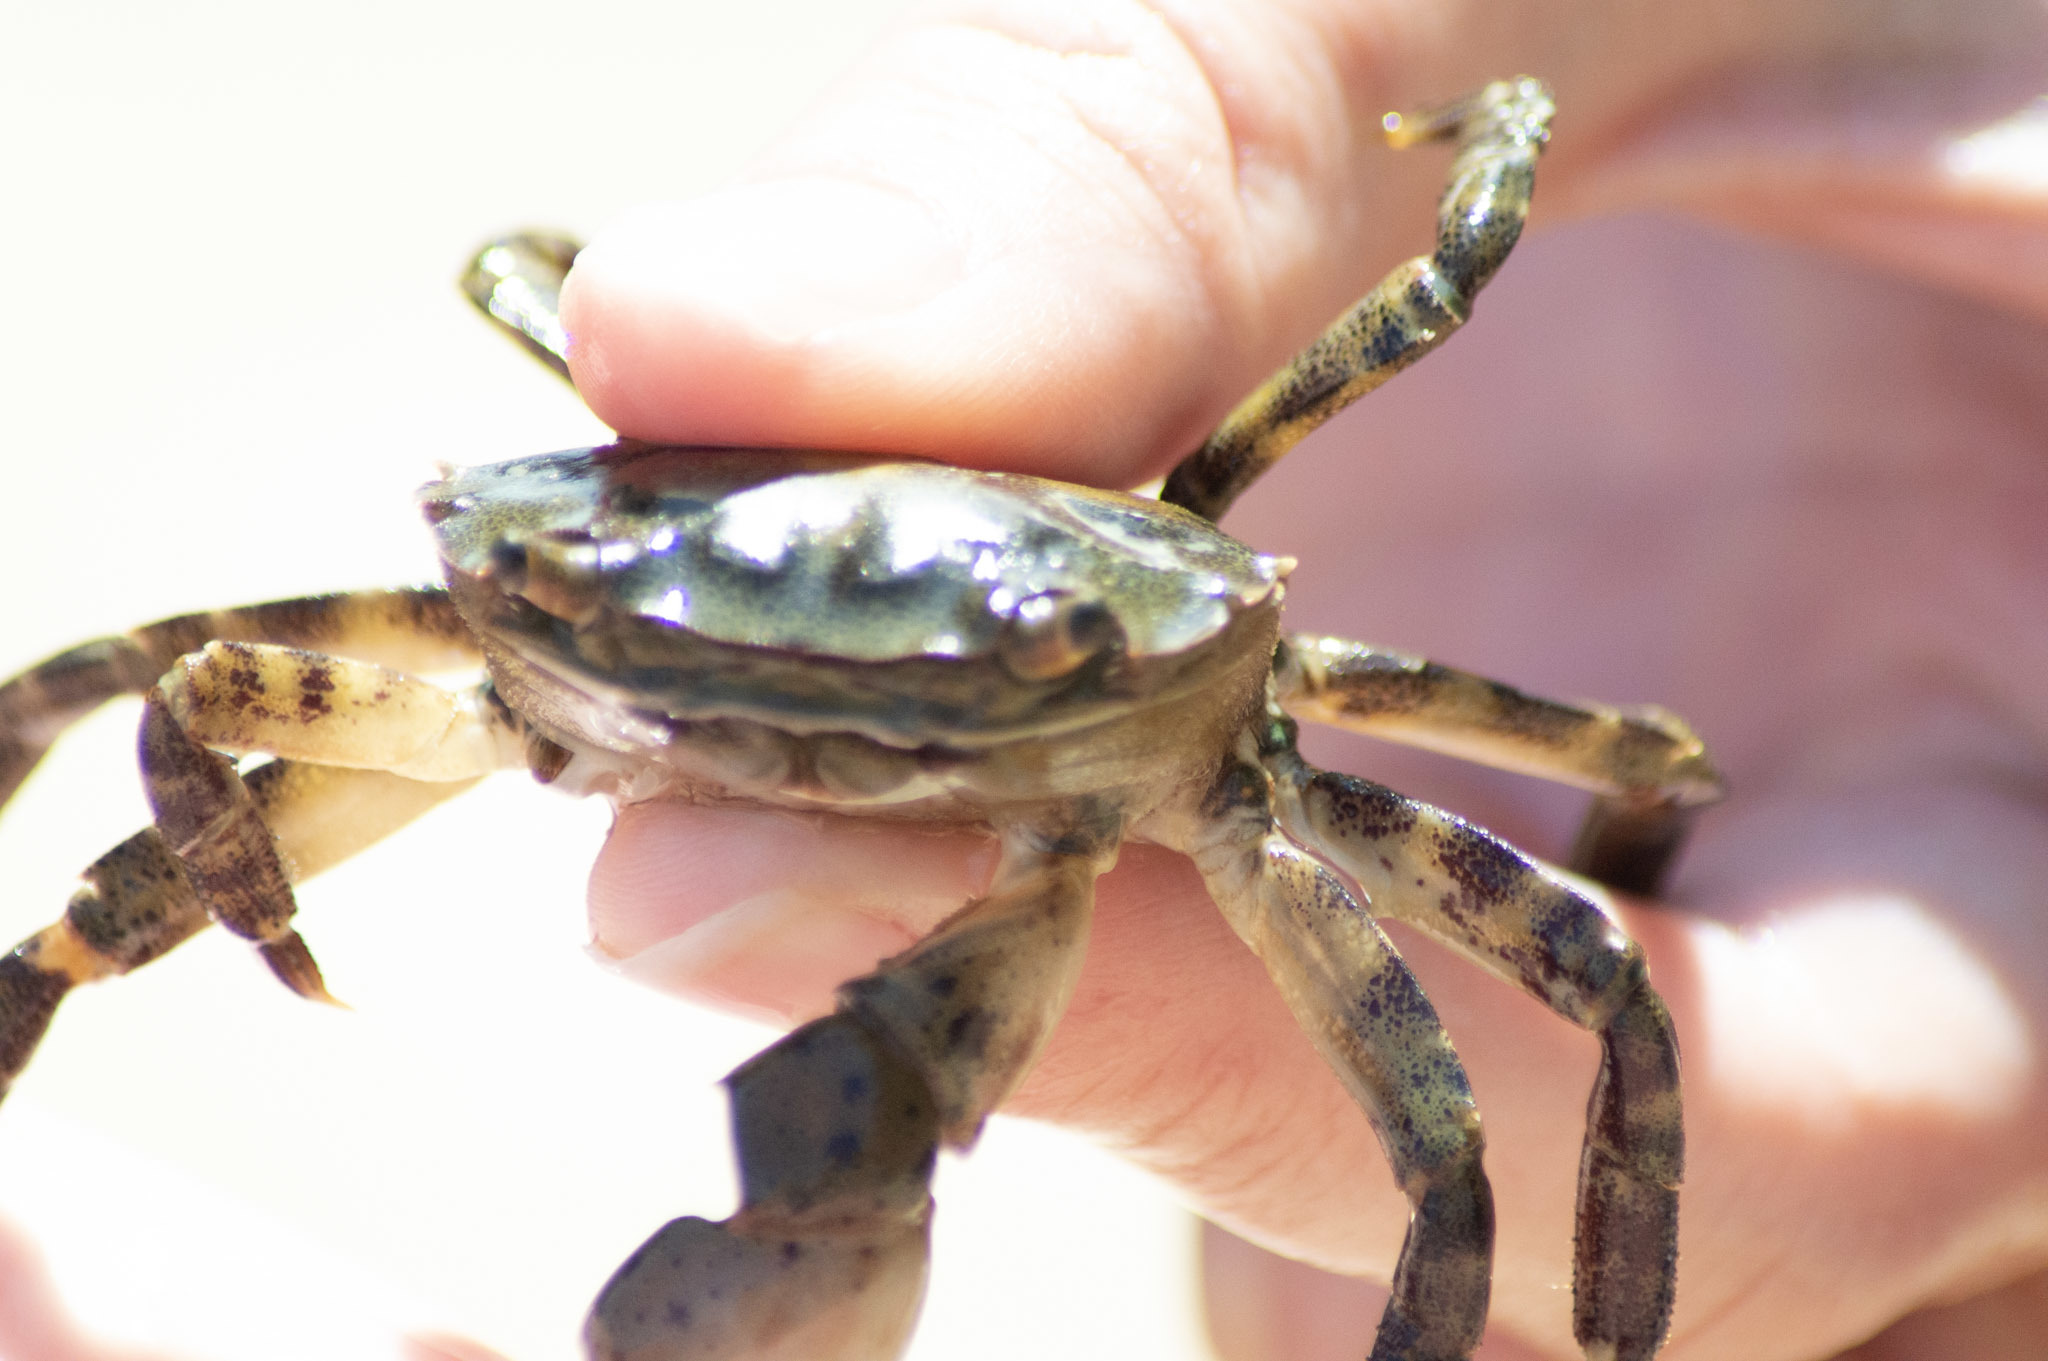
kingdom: Animalia
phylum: Arthropoda
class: Malacostraca
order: Decapoda
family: Varunidae
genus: Hemigrapsus
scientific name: Hemigrapsus sanguineus
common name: Asian shore crab
